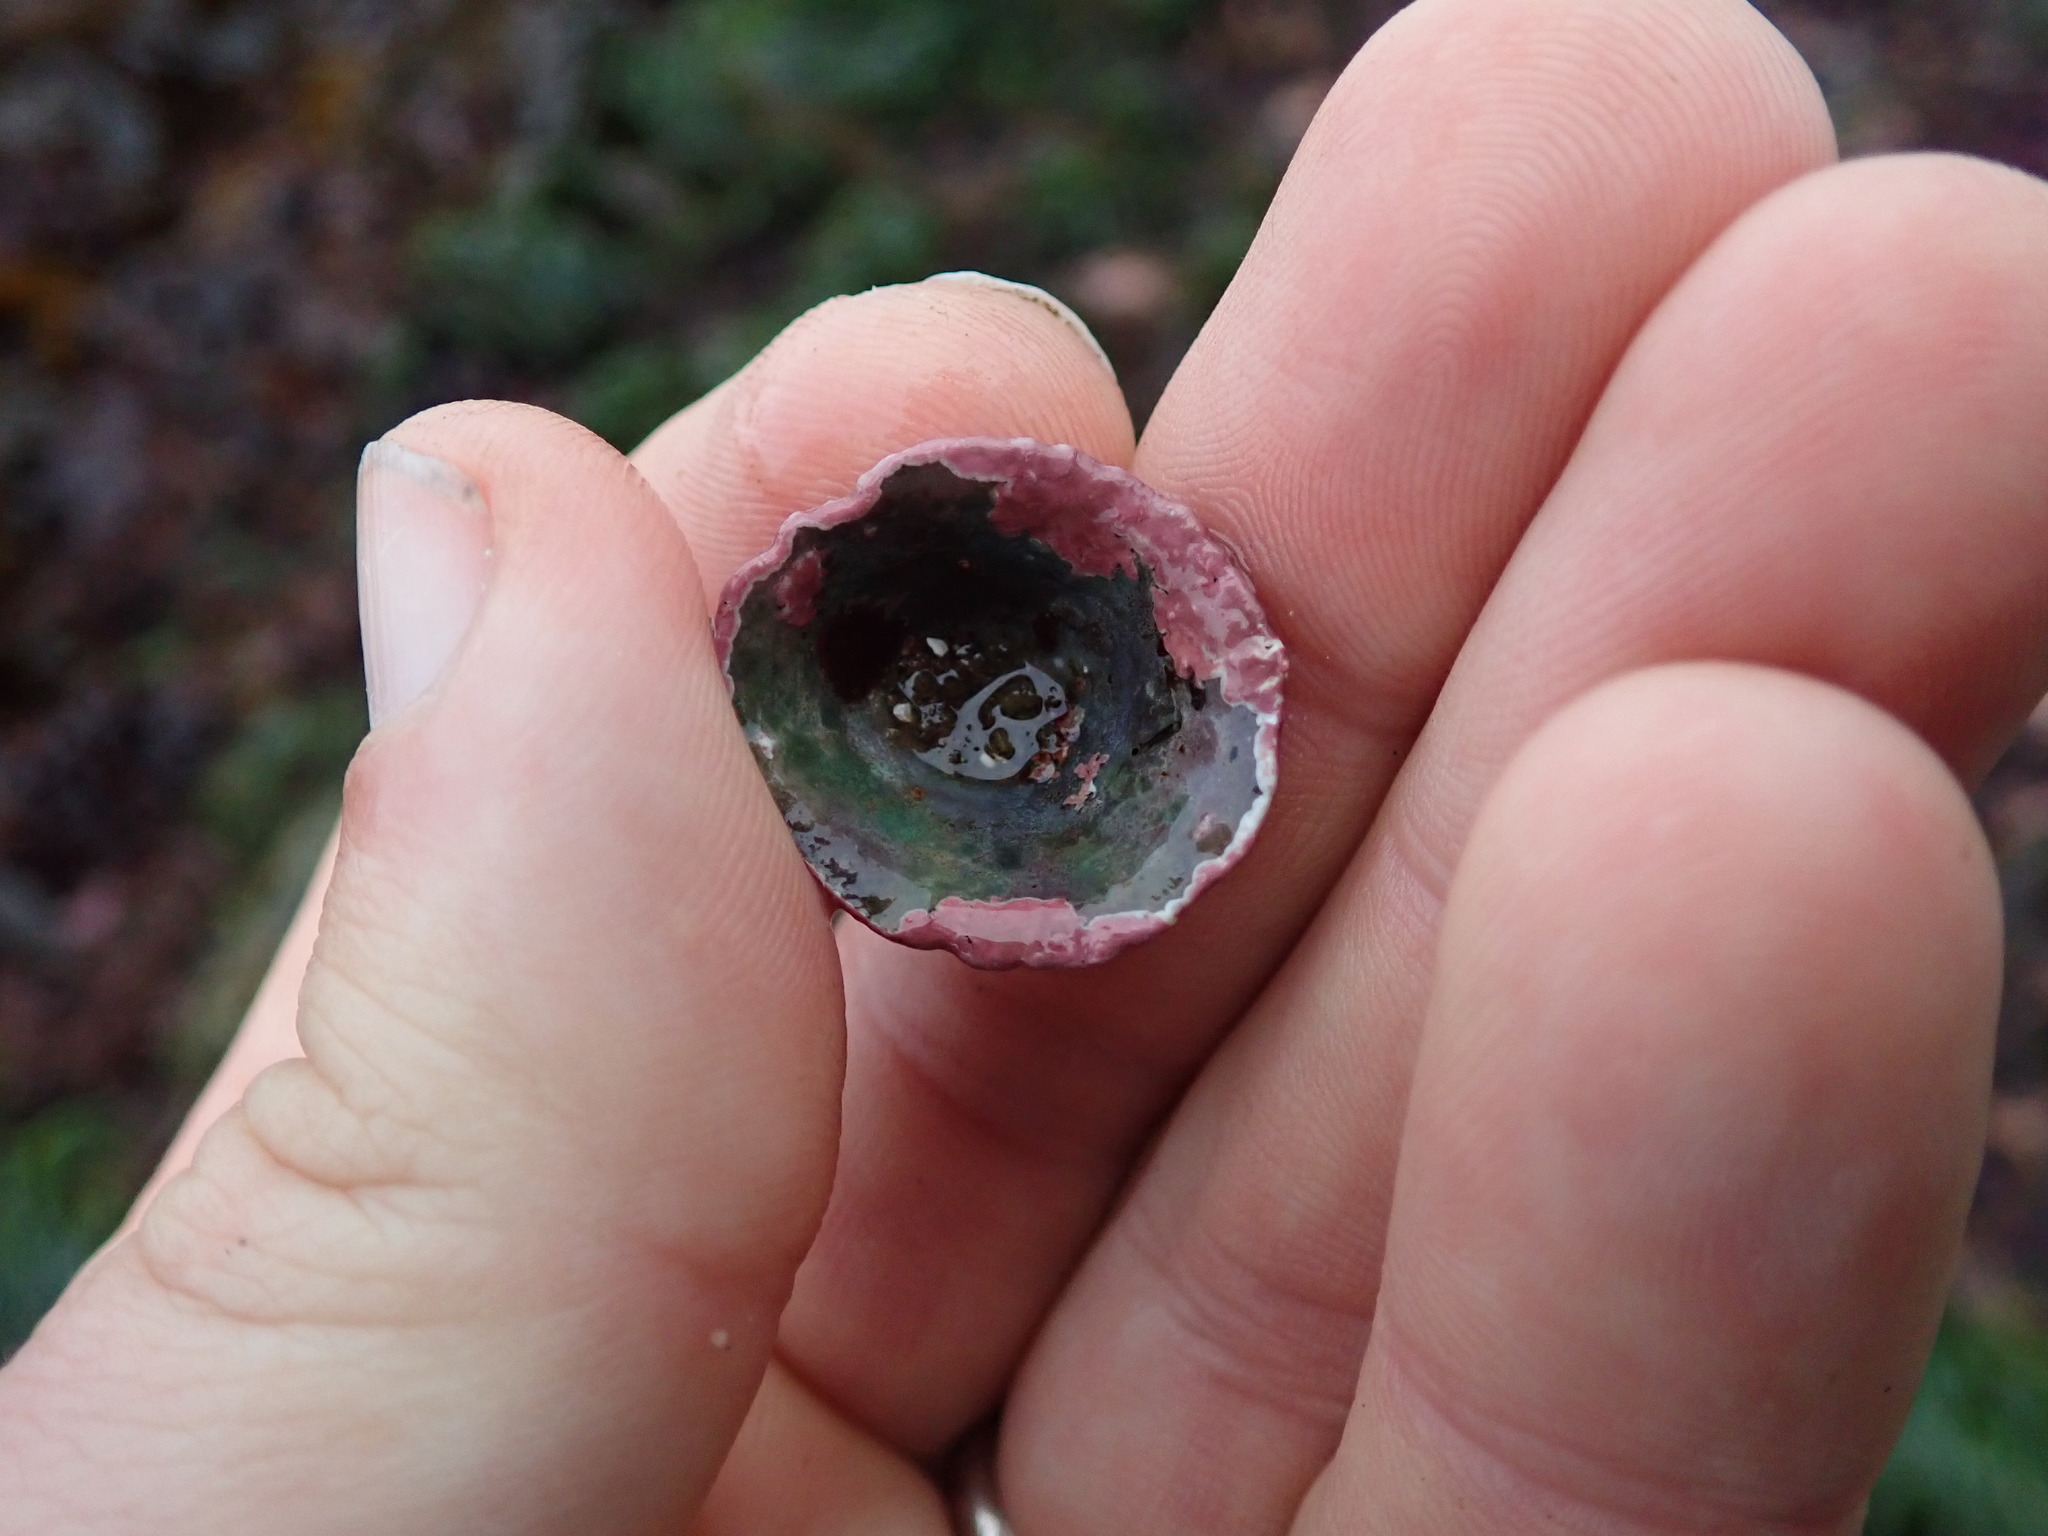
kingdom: Animalia
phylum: Mollusca
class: Gastropoda
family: Acmaeidae
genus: Acmaea
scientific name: Acmaea mitra
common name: Pacific white cap limpet
